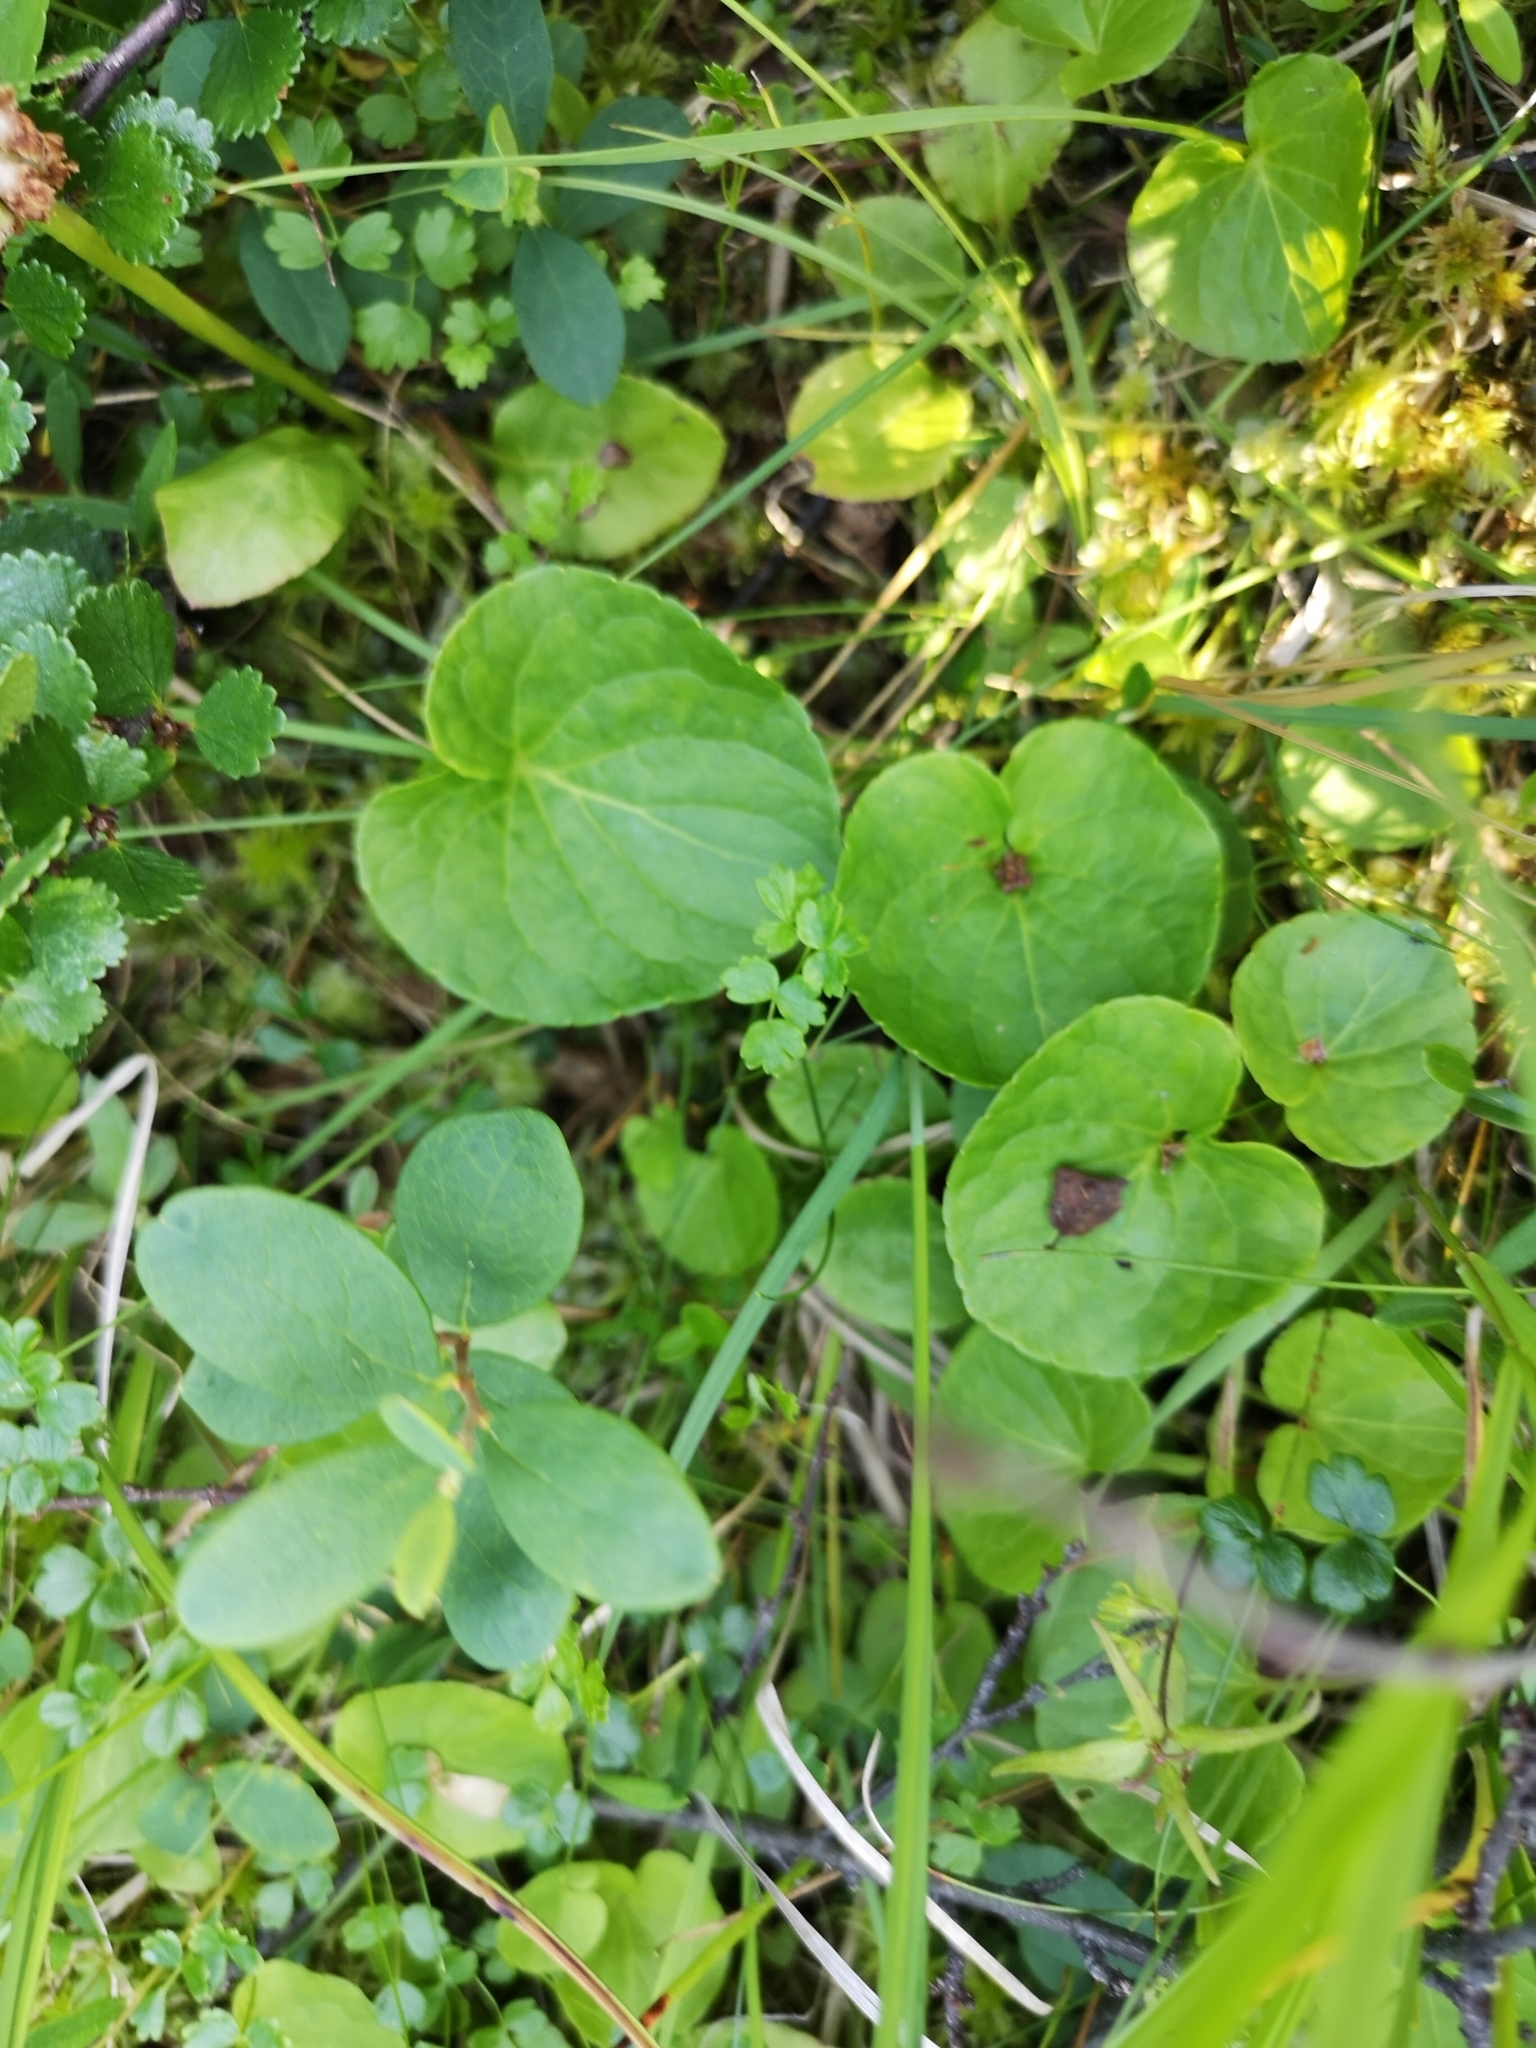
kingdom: Plantae
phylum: Tracheophyta
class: Magnoliopsida
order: Malpighiales
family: Violaceae
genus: Viola
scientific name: Viola palustris
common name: Marsh violet
